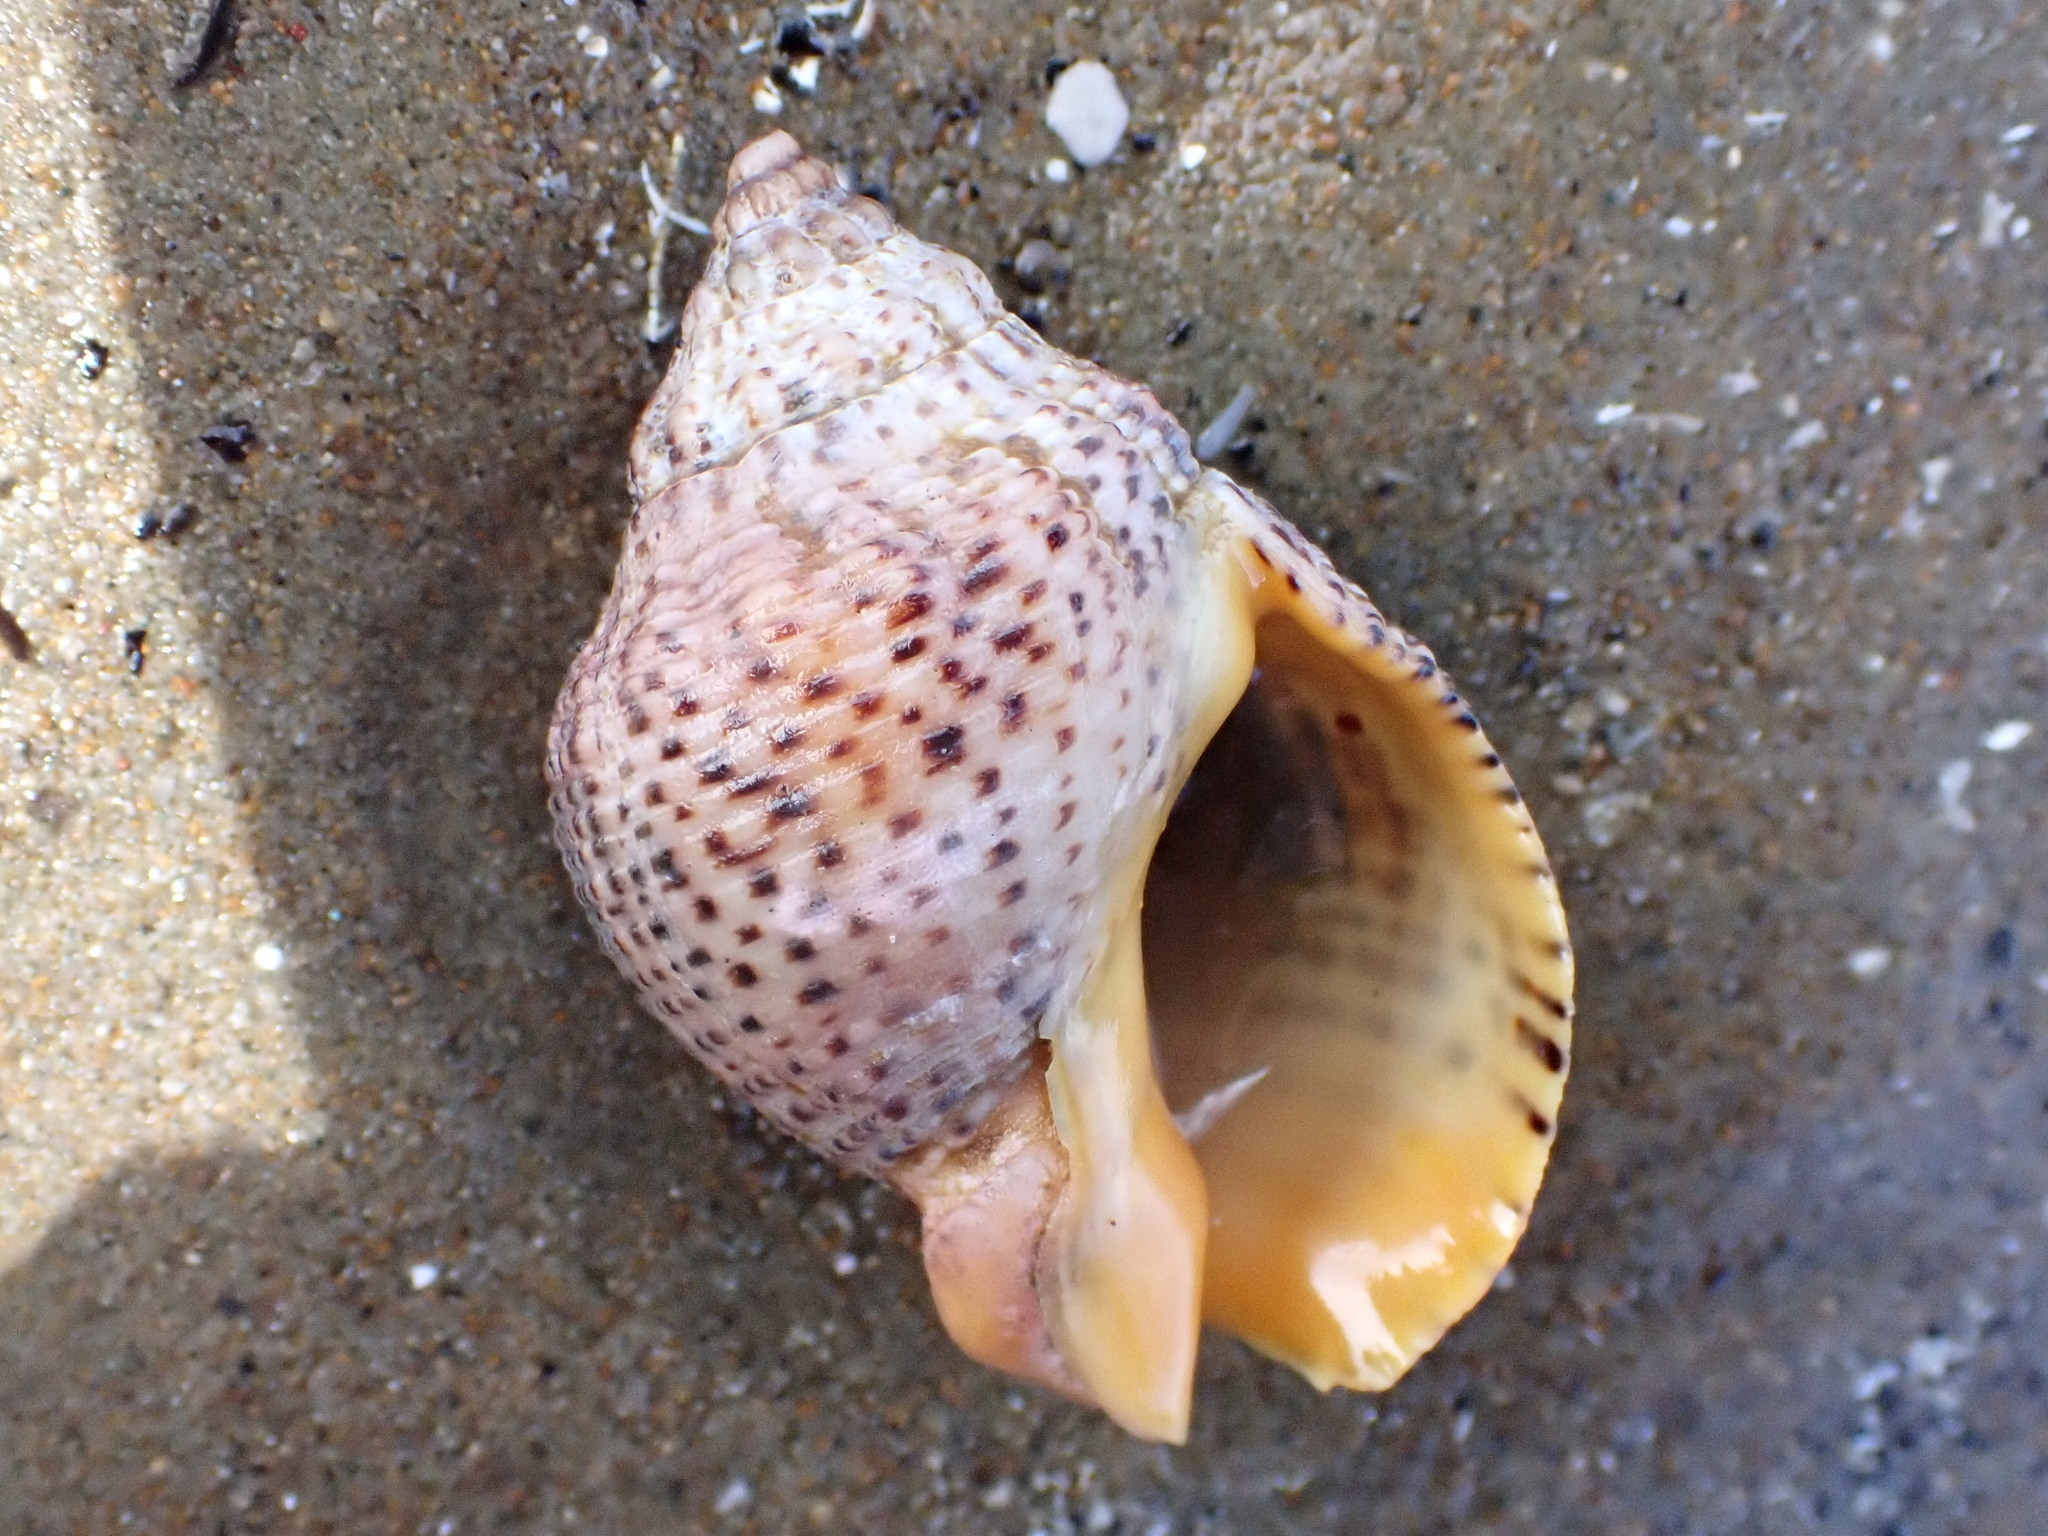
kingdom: Animalia
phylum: Mollusca
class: Gastropoda
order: Neogastropoda
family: Cominellidae
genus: Cominella
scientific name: Cominella adspersa
